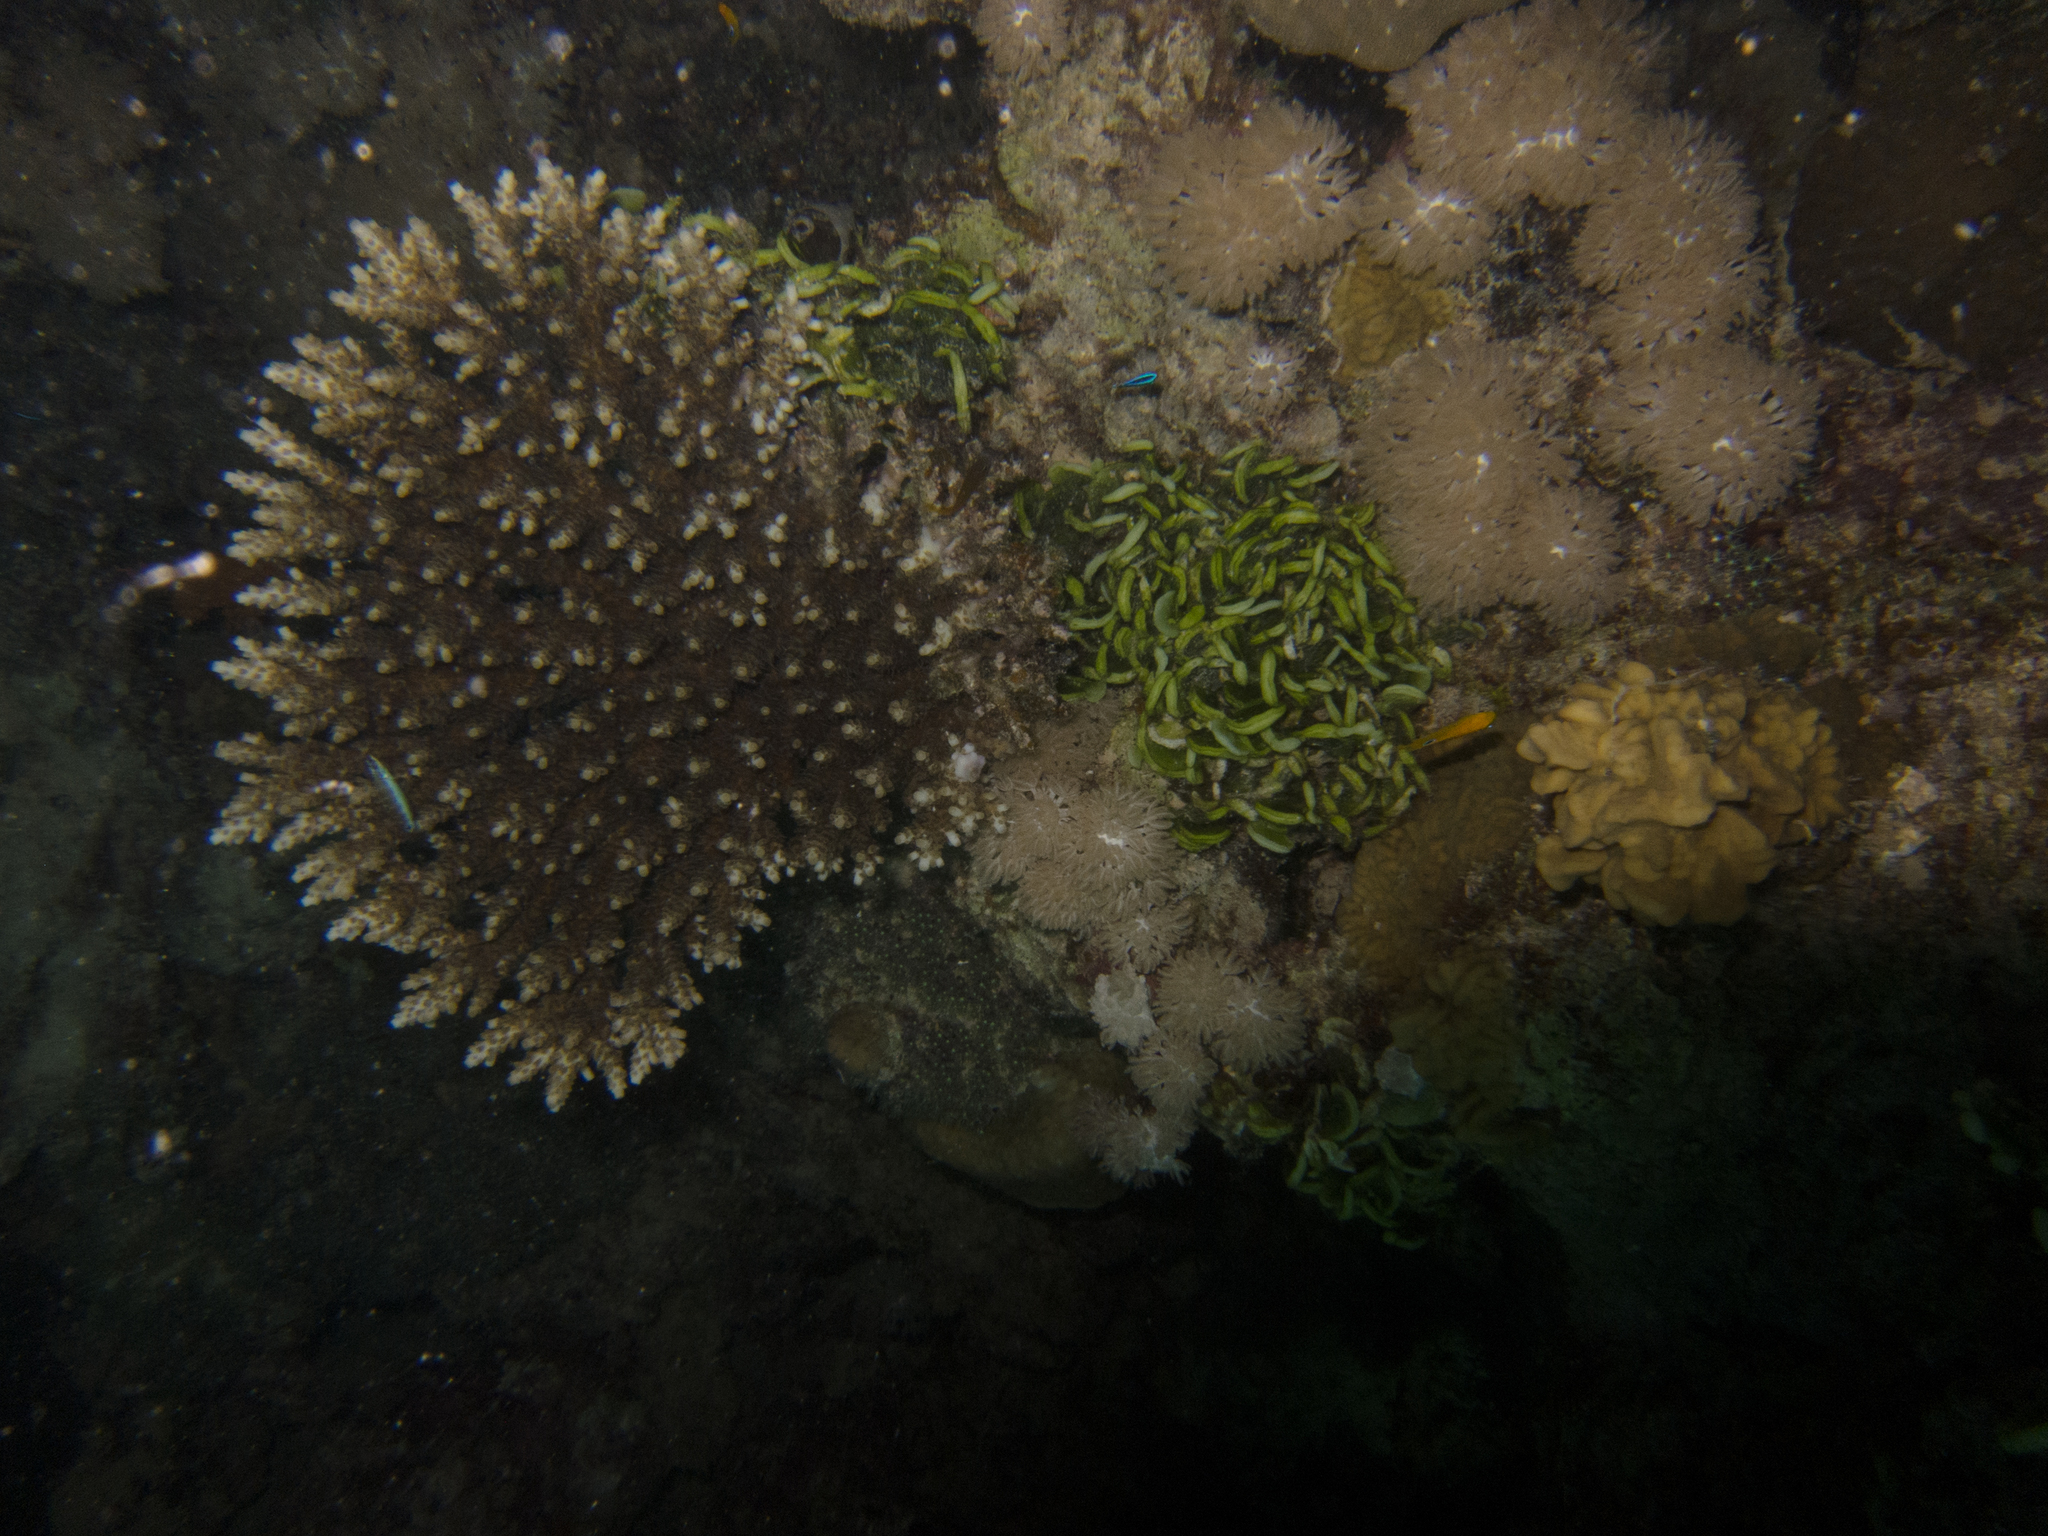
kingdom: Animalia
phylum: Cnidaria
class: Anthozoa
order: Scleractinia
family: Agariciidae
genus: Pavona
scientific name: Pavona frondifera
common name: Leaf coral
